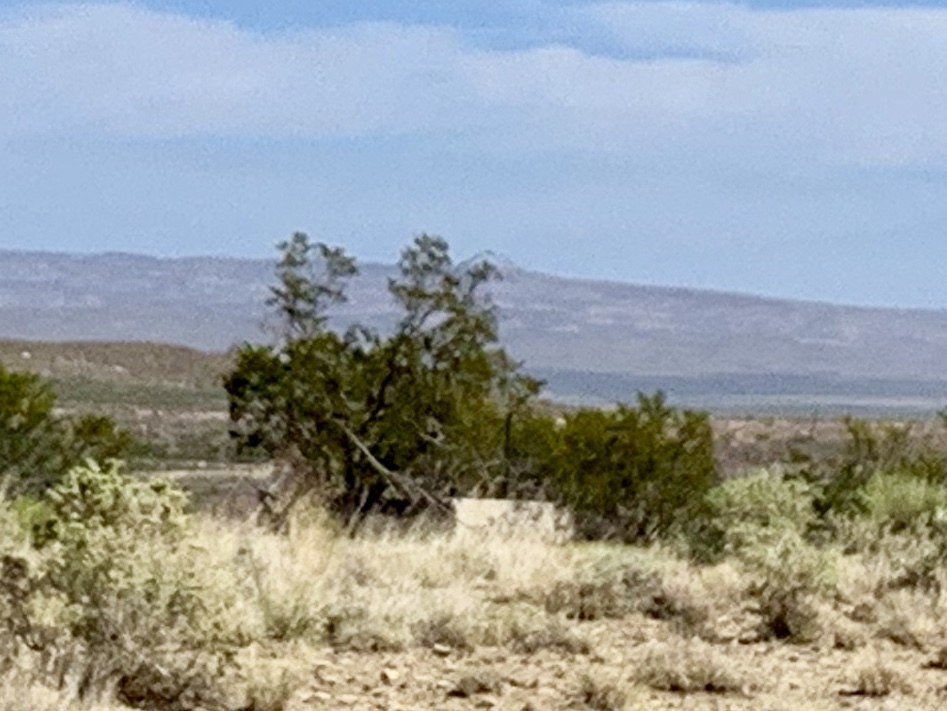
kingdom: Plantae
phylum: Tracheophyta
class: Magnoliopsida
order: Zygophyllales
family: Zygophyllaceae
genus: Larrea
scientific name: Larrea tridentata
